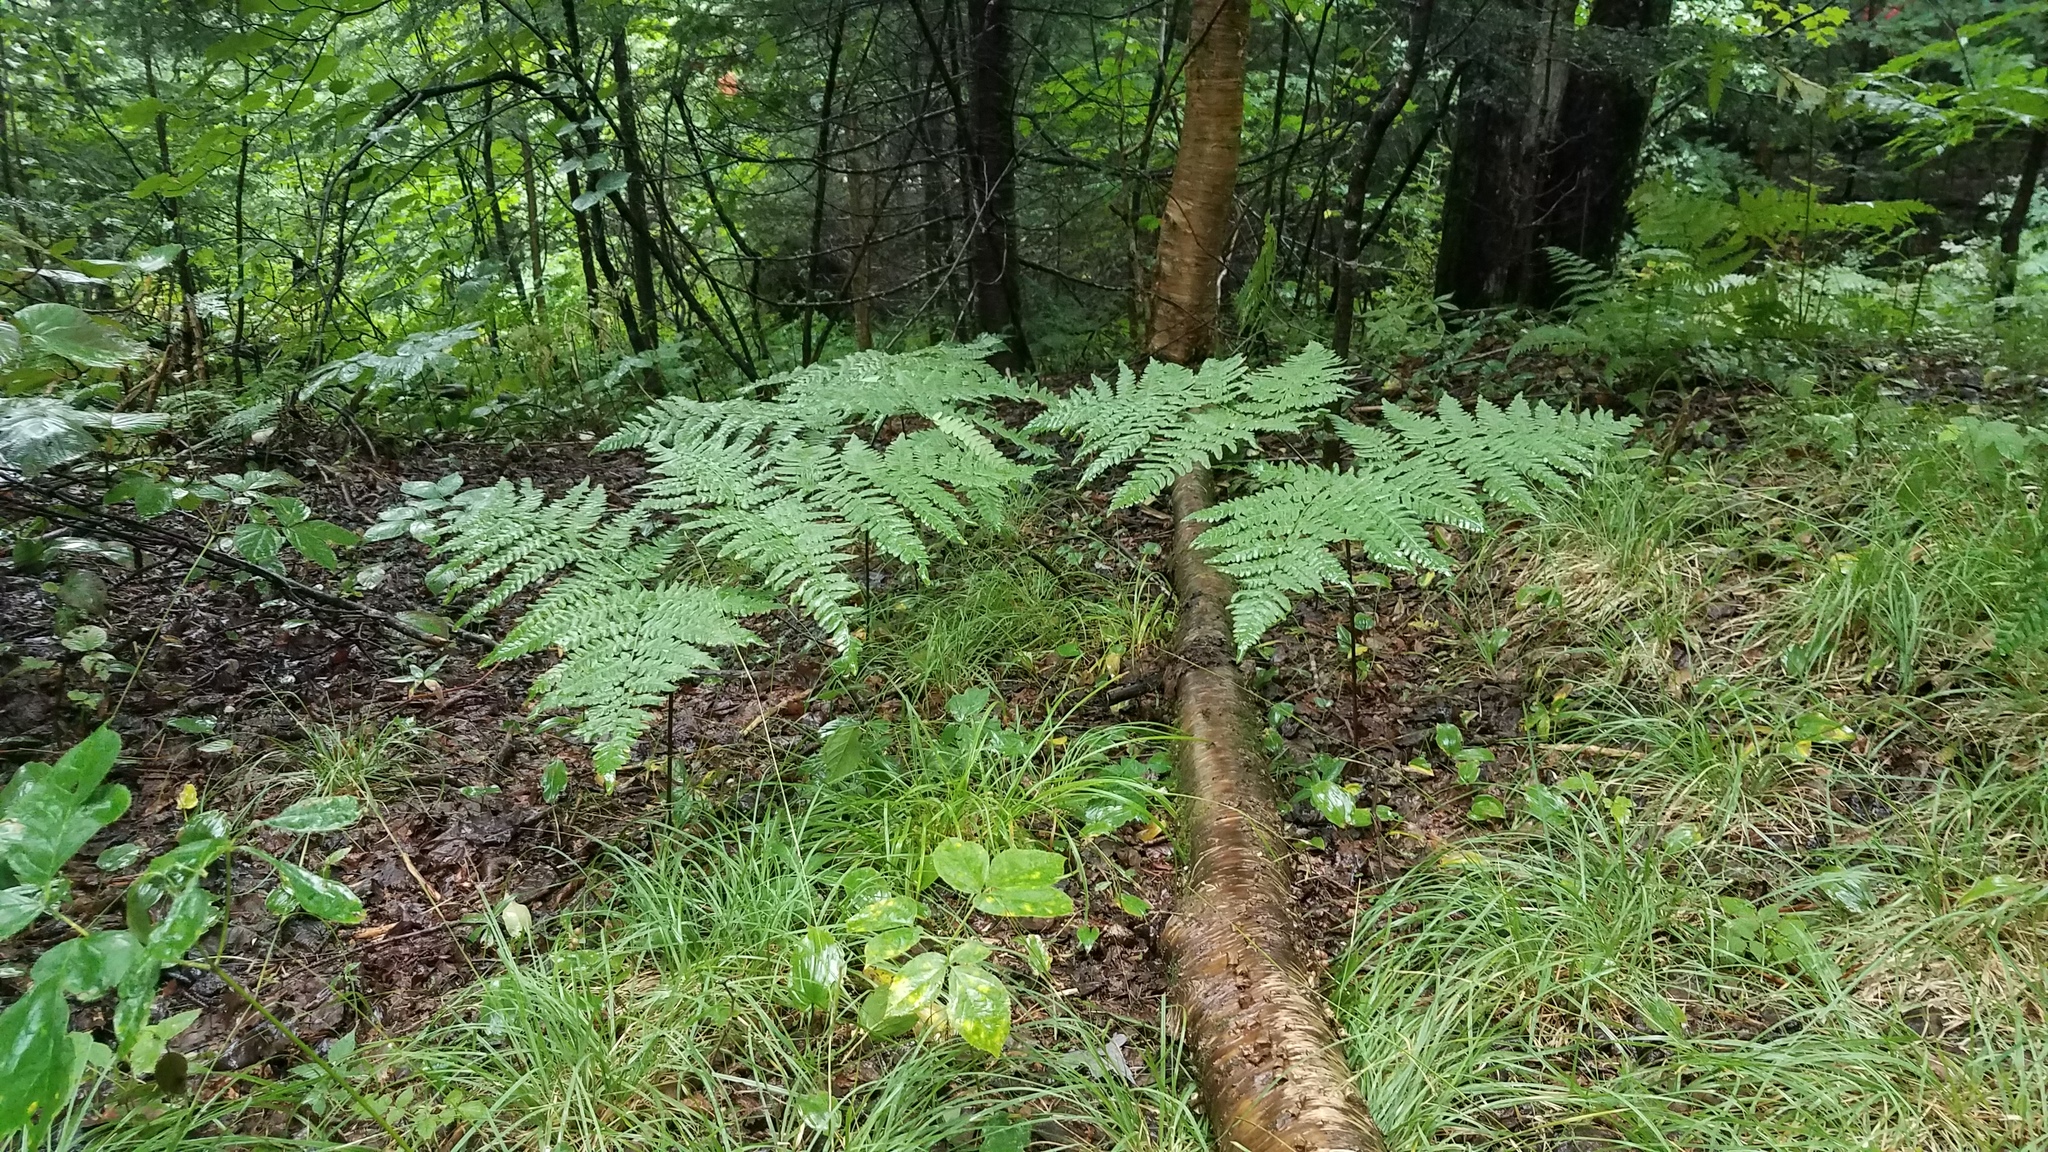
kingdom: Plantae
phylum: Tracheophyta
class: Polypodiopsida
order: Polypodiales
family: Dennstaedtiaceae
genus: Pteridium
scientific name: Pteridium aquilinum
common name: Bracken
